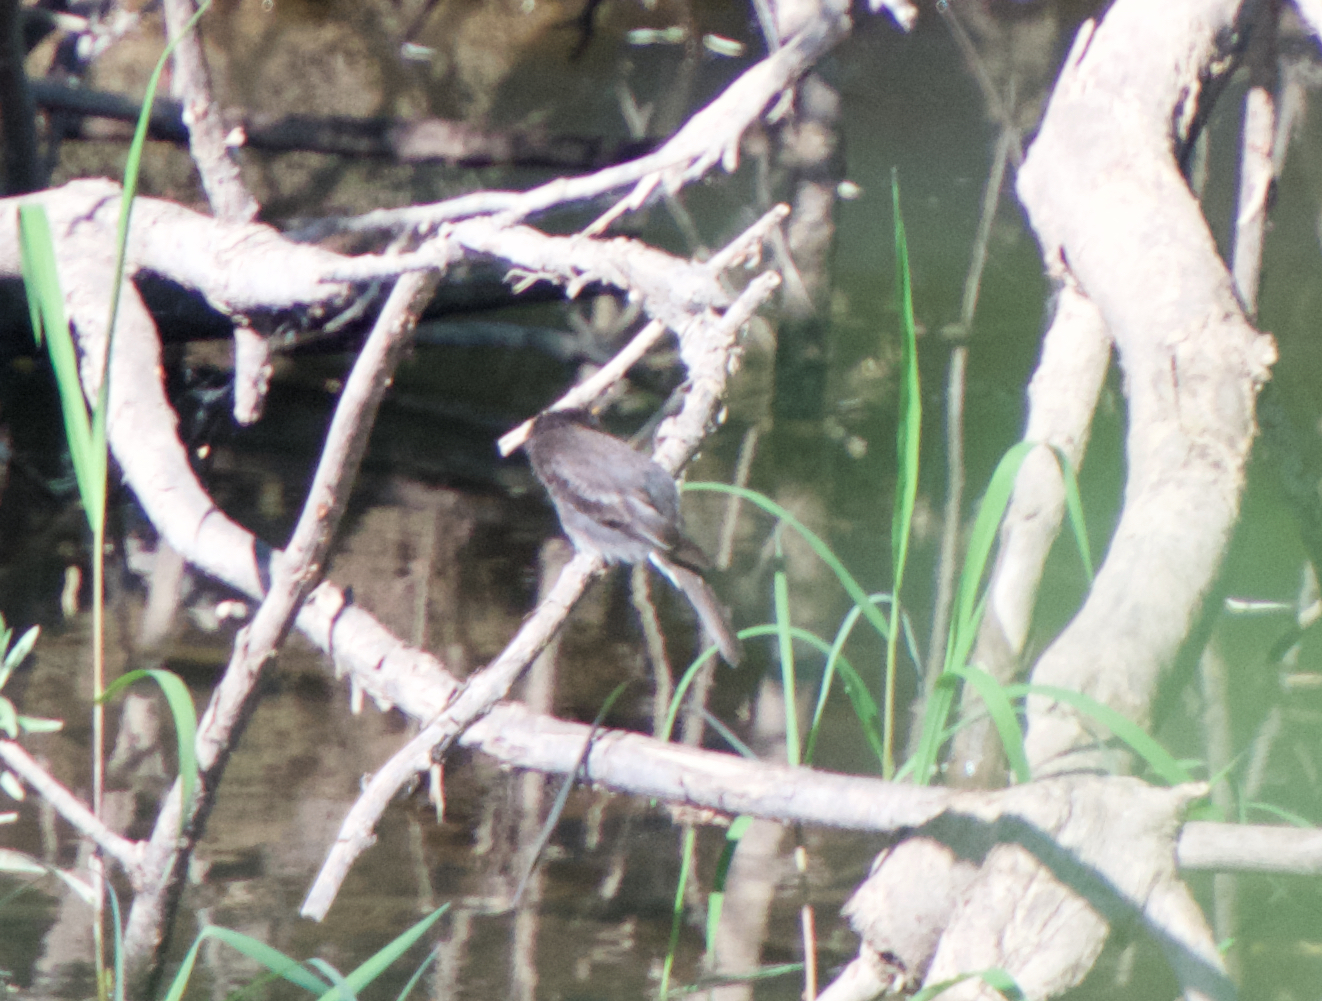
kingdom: Animalia
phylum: Chordata
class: Aves
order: Passeriformes
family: Tyrannidae
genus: Sayornis
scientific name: Sayornis nigricans
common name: Black phoebe
